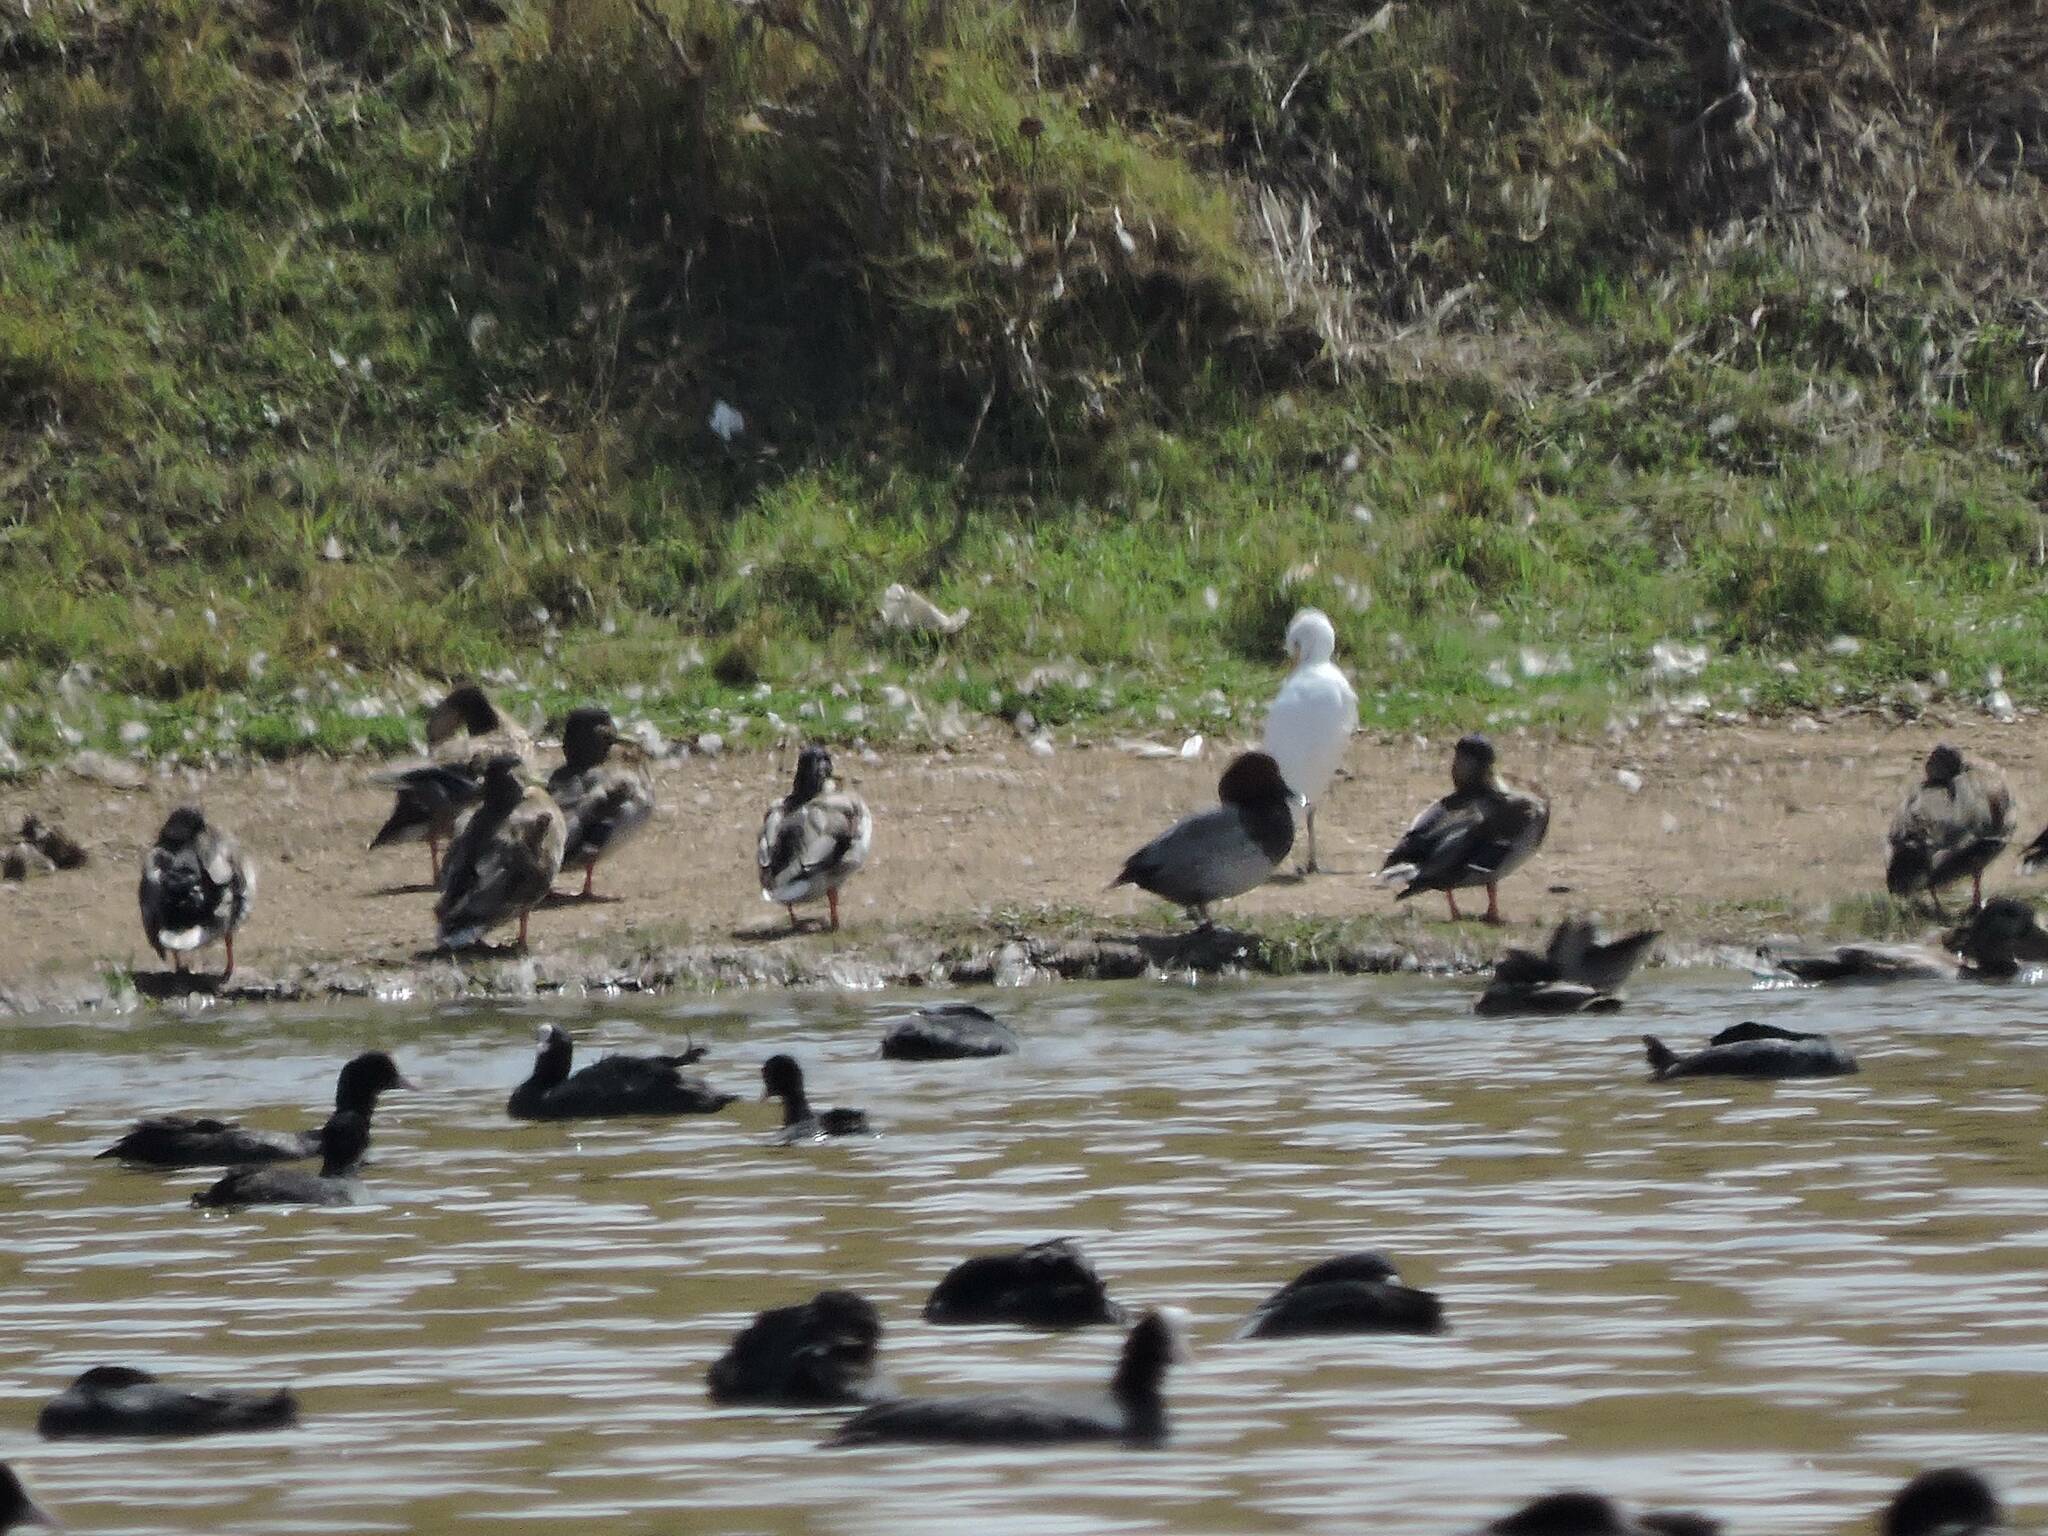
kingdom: Animalia
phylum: Chordata
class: Aves
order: Anseriformes
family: Anatidae
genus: Anas
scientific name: Anas platyrhynchos
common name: Mallard
